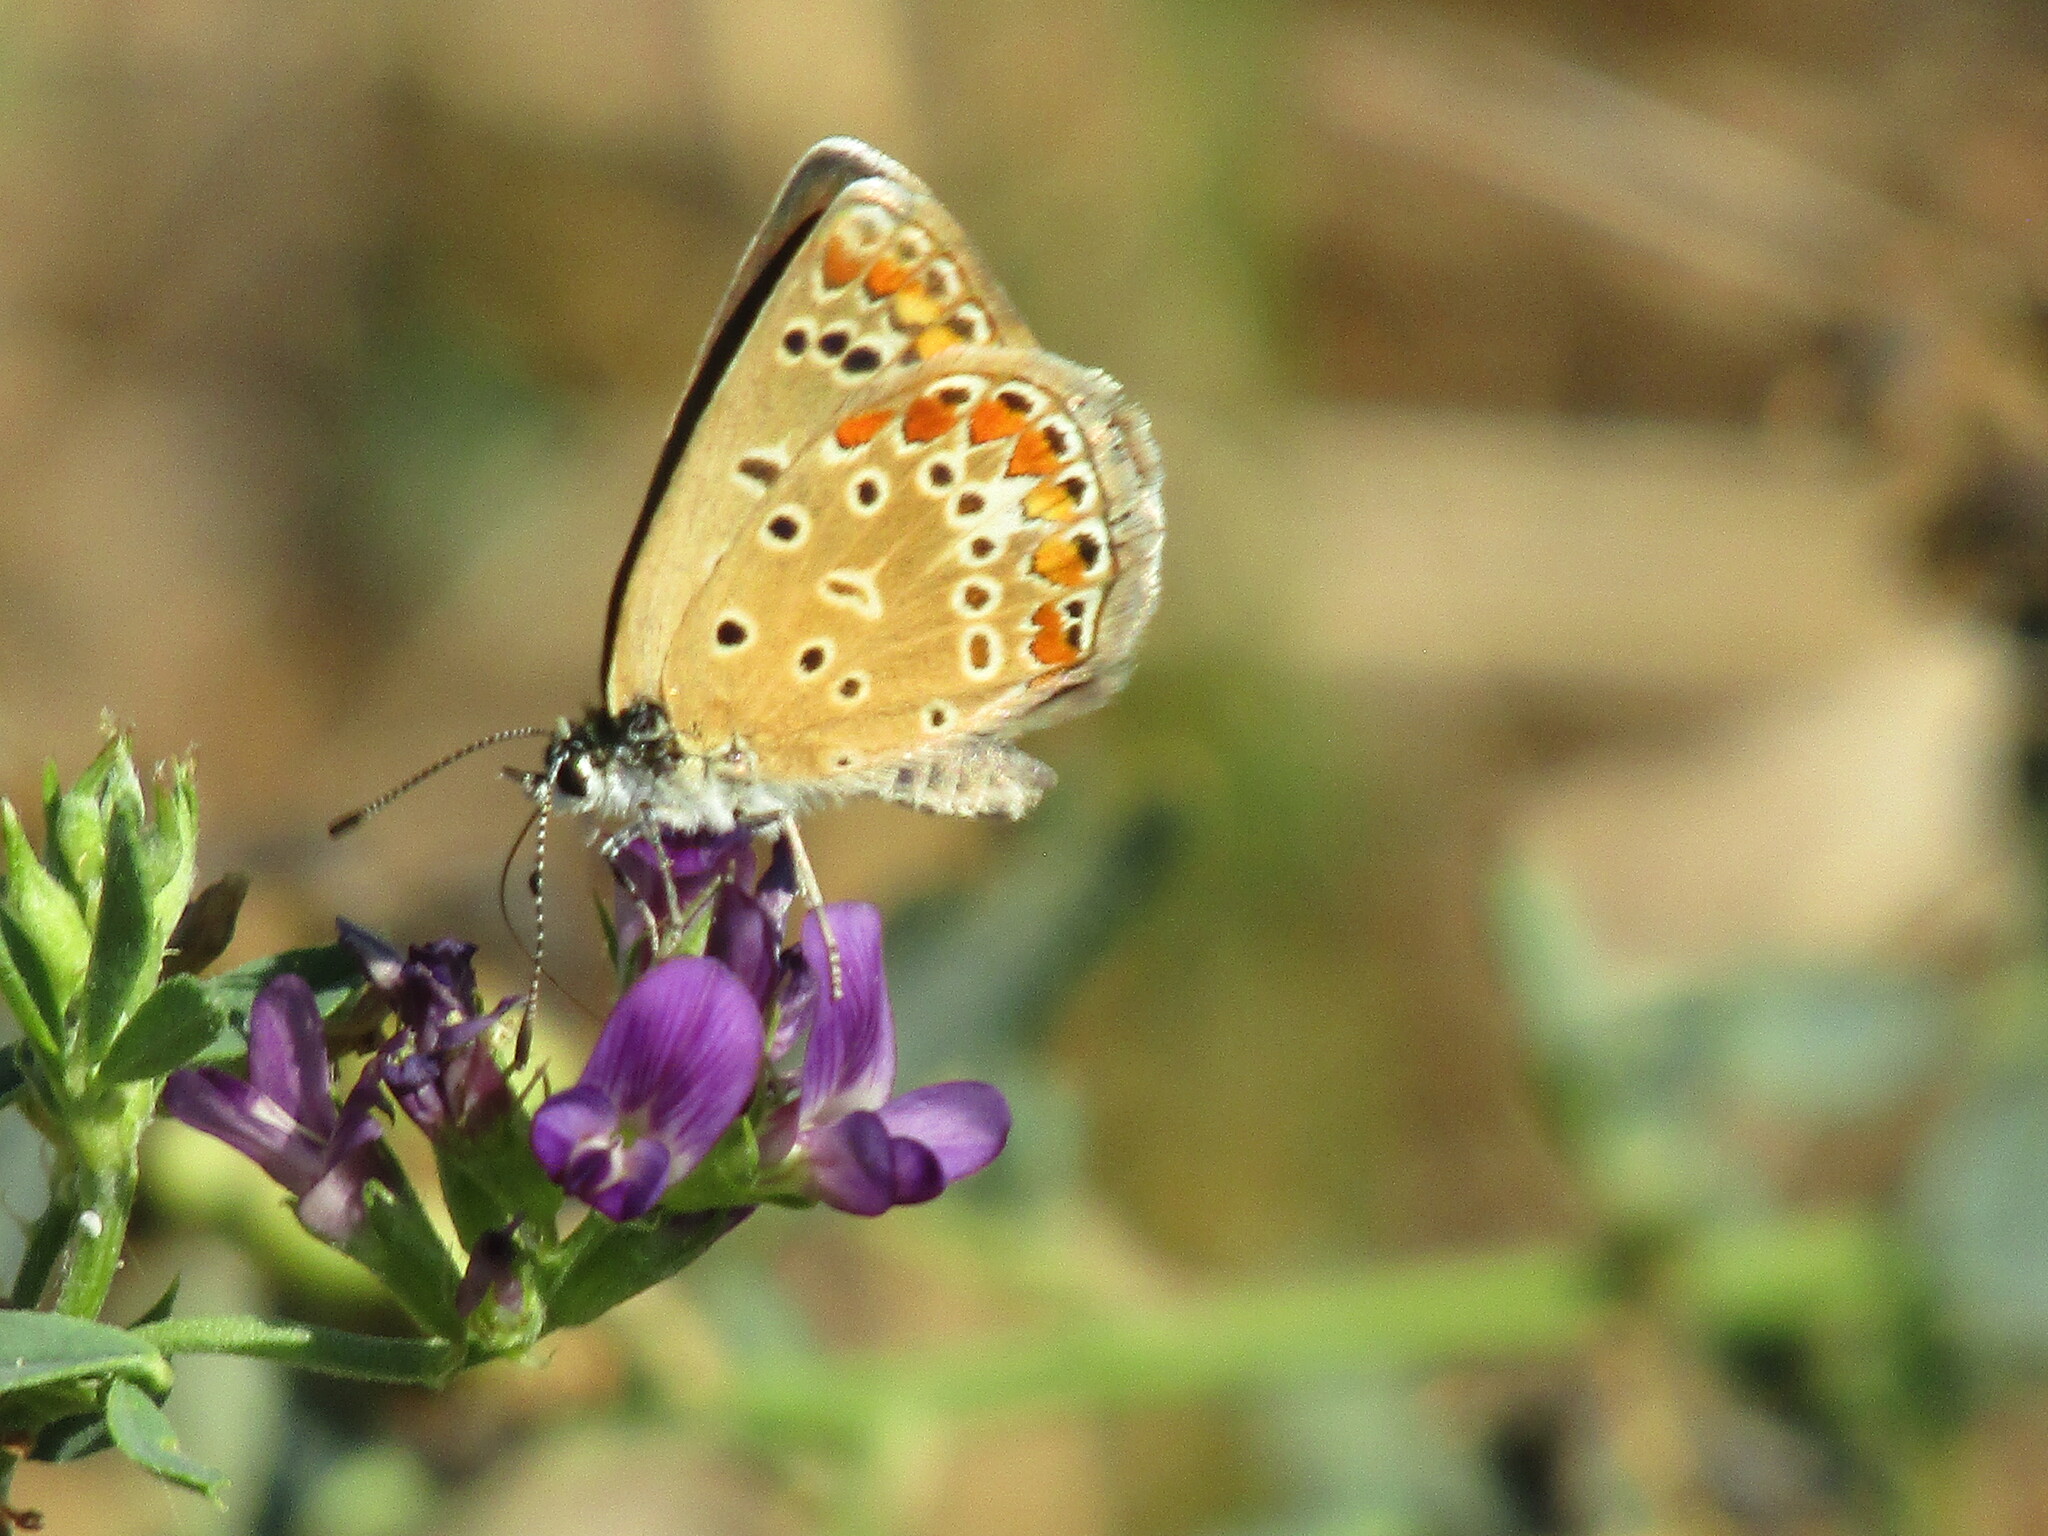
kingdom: Animalia
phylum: Arthropoda
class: Insecta
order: Lepidoptera
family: Lycaenidae
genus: Polyommatus
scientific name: Polyommatus icarus
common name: Common blue
